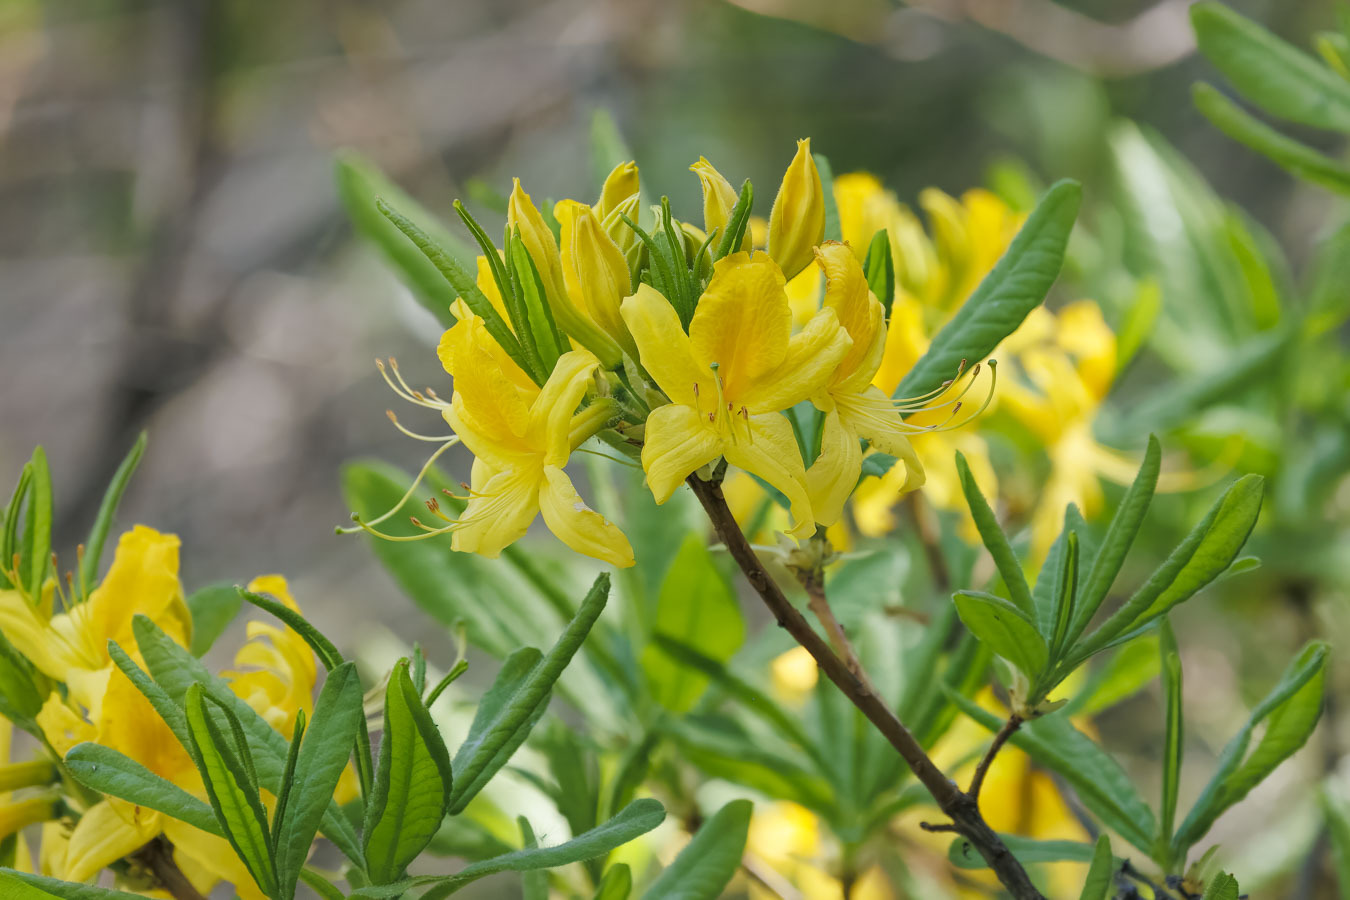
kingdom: Plantae
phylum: Tracheophyta
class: Magnoliopsida
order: Ericales
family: Ericaceae
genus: Rhododendron
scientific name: Rhododendron luteum
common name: Yellow azalea
